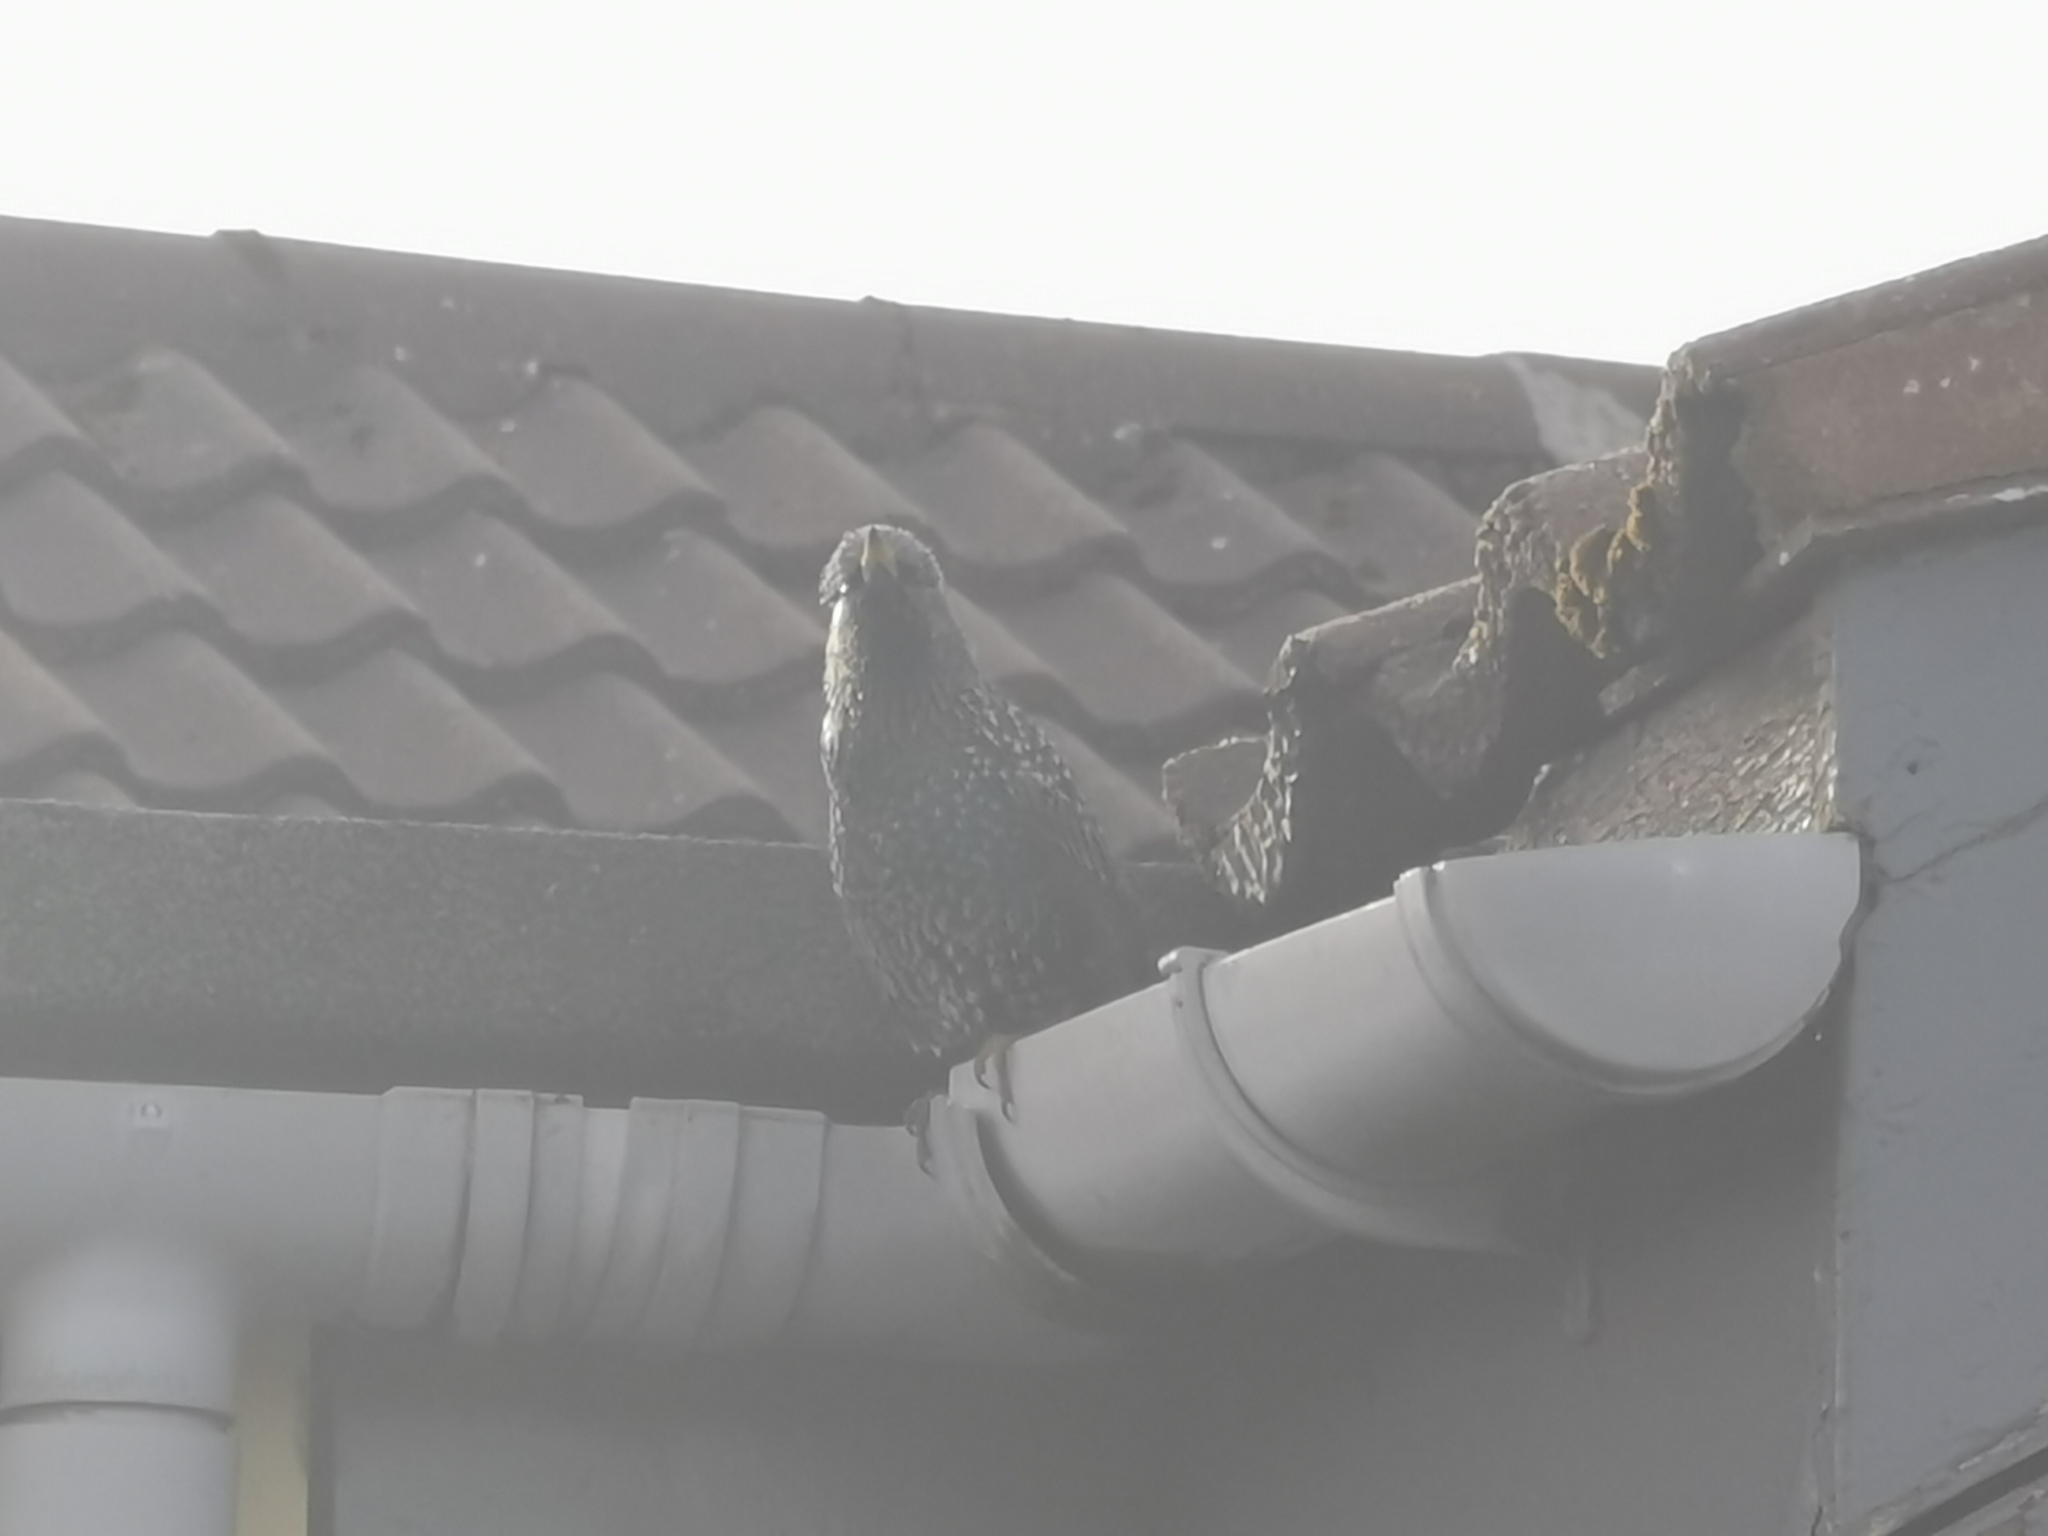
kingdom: Animalia
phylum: Chordata
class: Aves
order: Passeriformes
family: Sturnidae
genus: Sturnus
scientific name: Sturnus vulgaris
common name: Common starling
